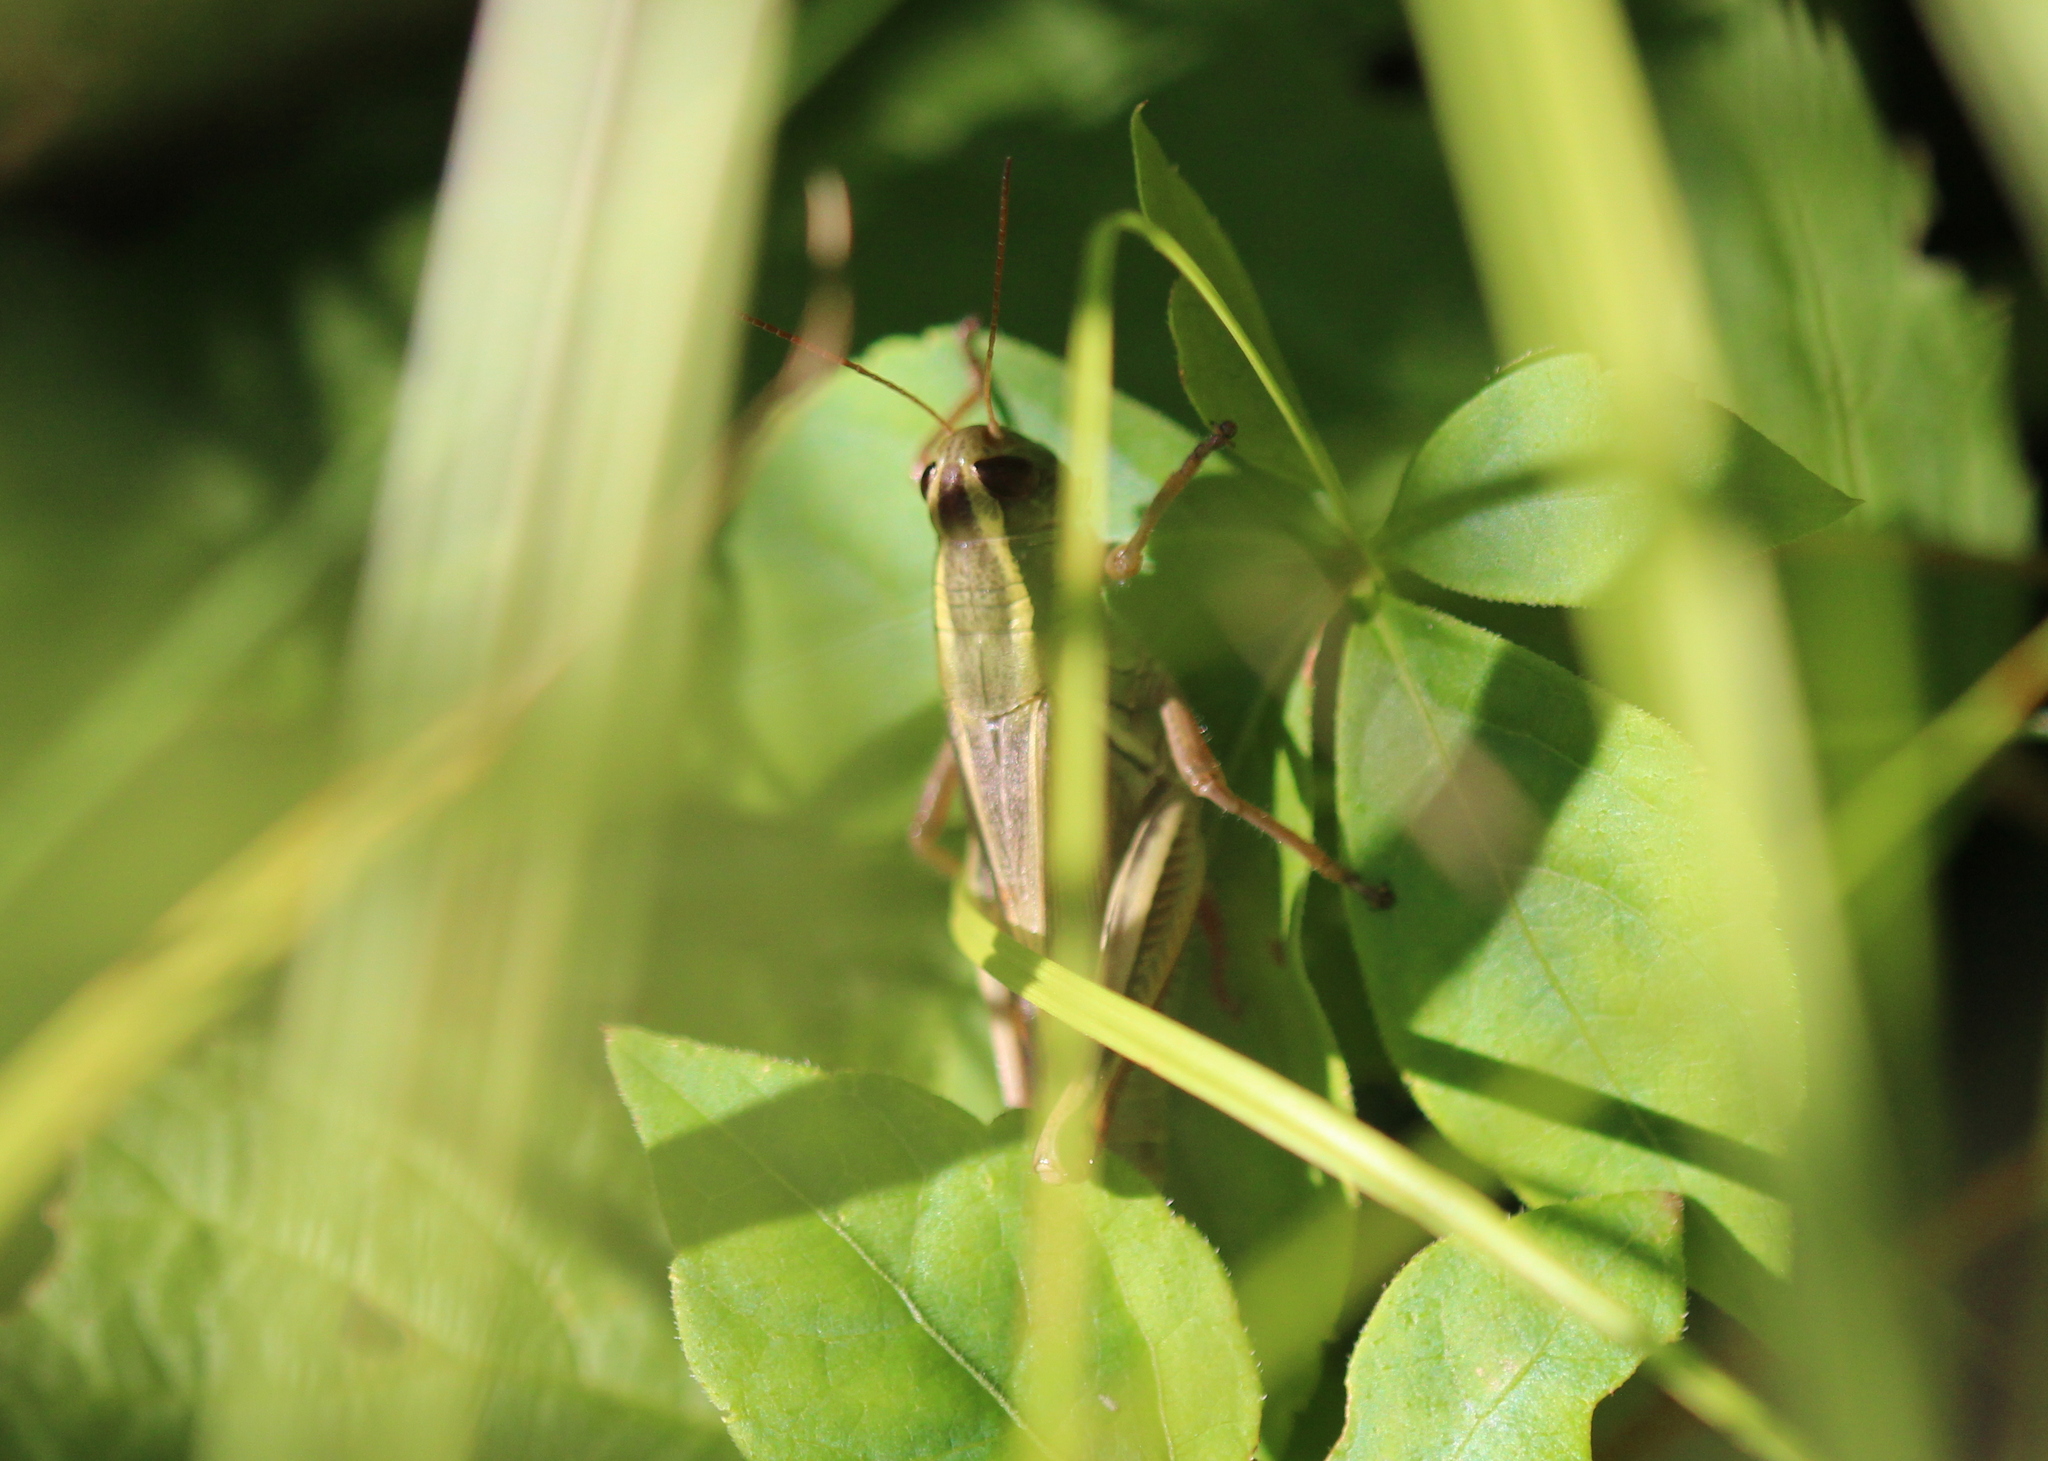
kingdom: Animalia
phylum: Arthropoda
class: Insecta
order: Orthoptera
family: Acrididae
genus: Melanoplus
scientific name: Melanoplus bivittatus
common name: Two-striped grasshopper
